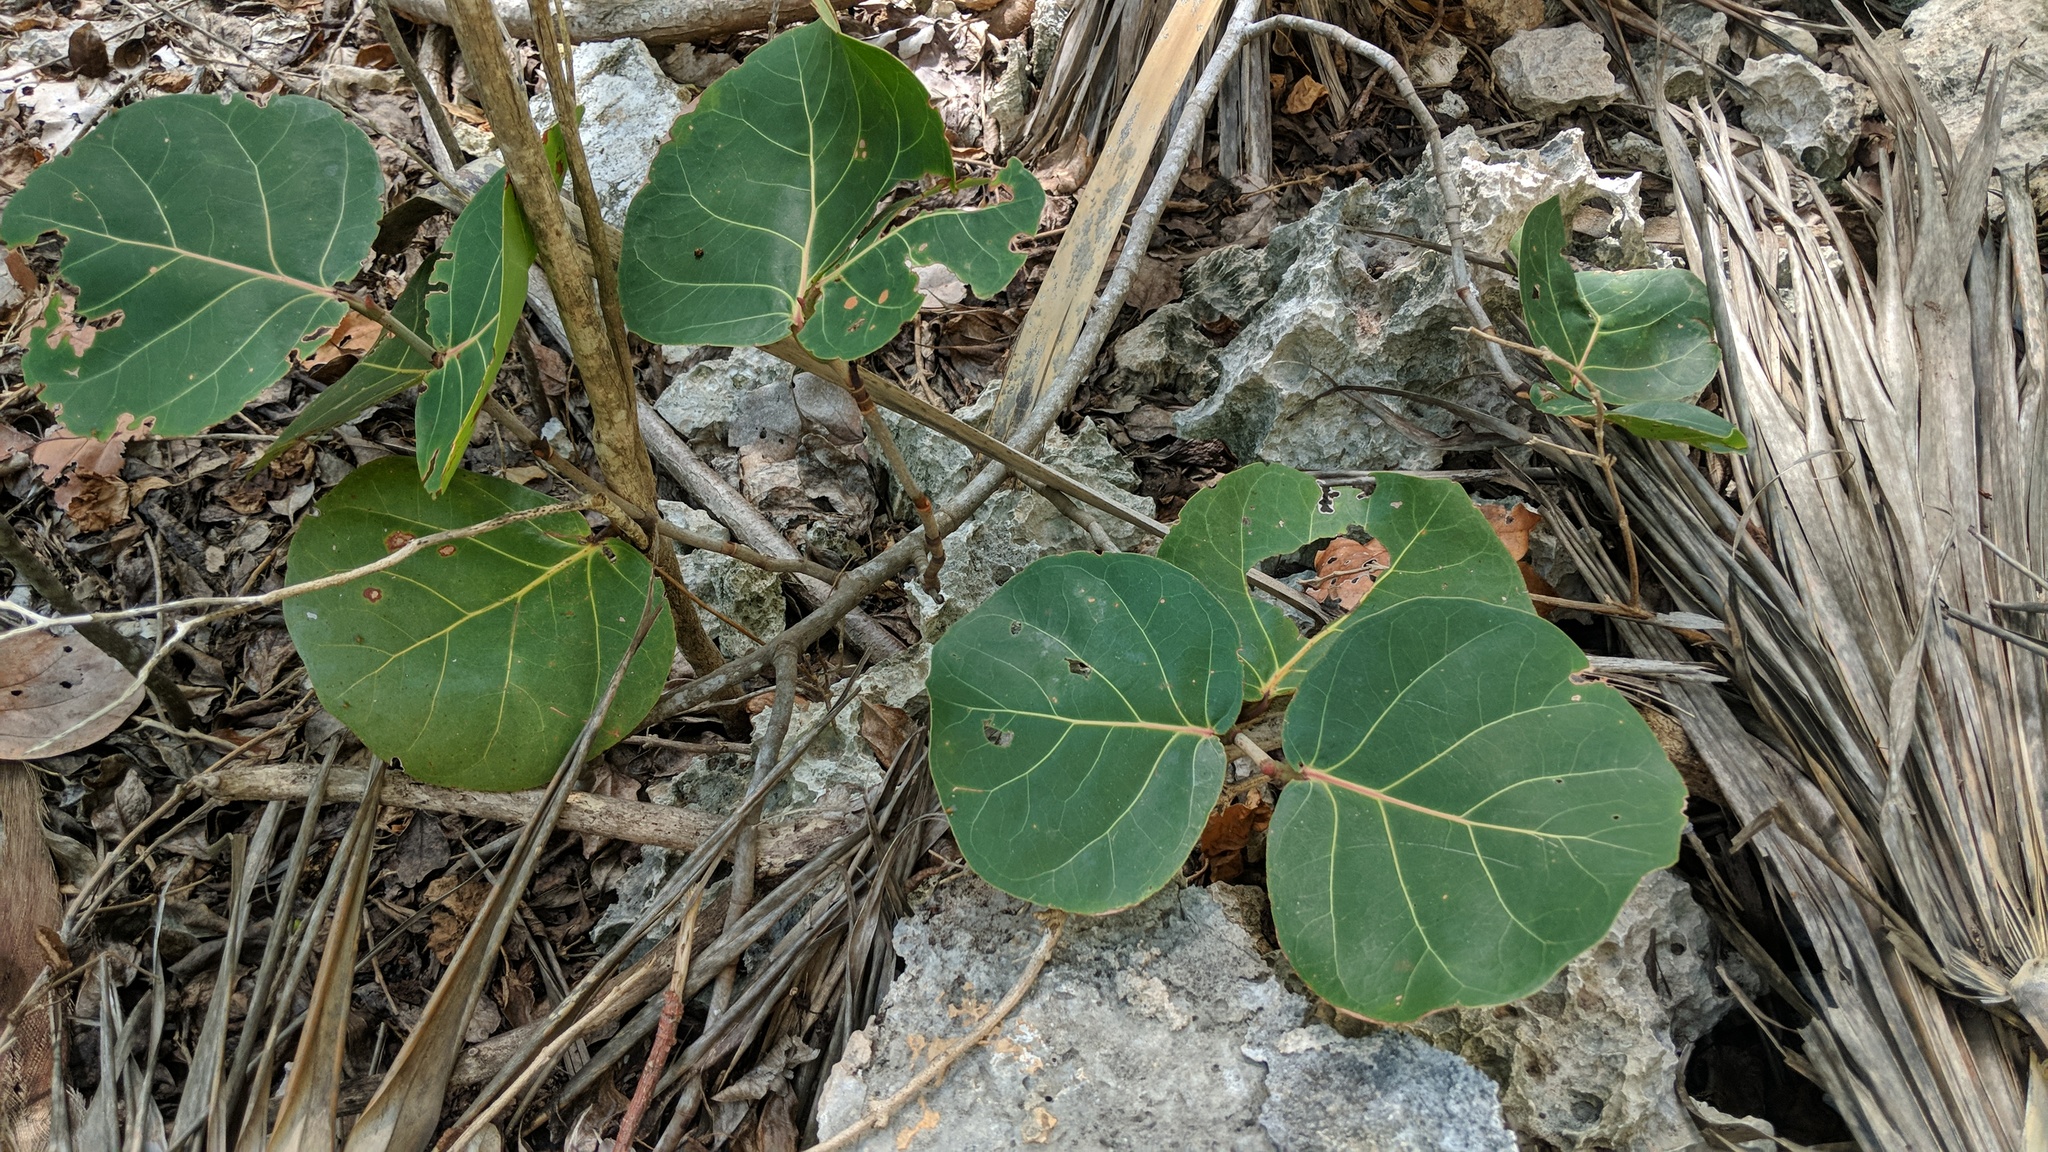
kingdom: Plantae
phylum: Tracheophyta
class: Magnoliopsida
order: Caryophyllales
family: Polygonaceae
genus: Coccoloba
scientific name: Coccoloba uvifera
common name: Seagrape
